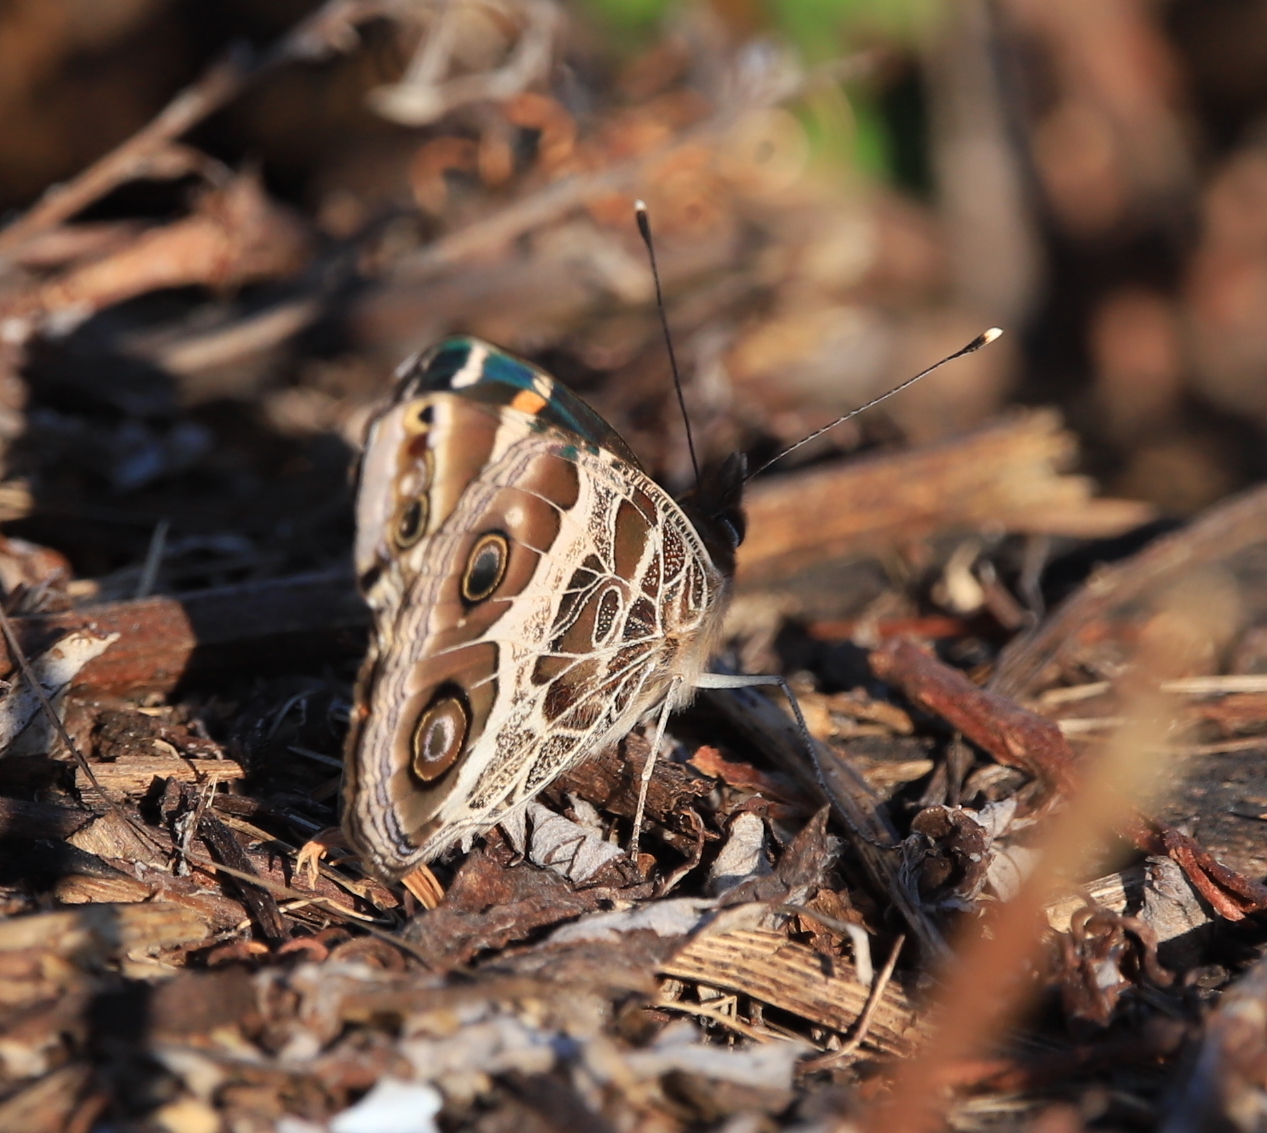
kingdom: Animalia
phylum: Arthropoda
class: Insecta
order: Lepidoptera
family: Nymphalidae
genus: Vanessa
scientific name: Vanessa virginiensis
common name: American lady
